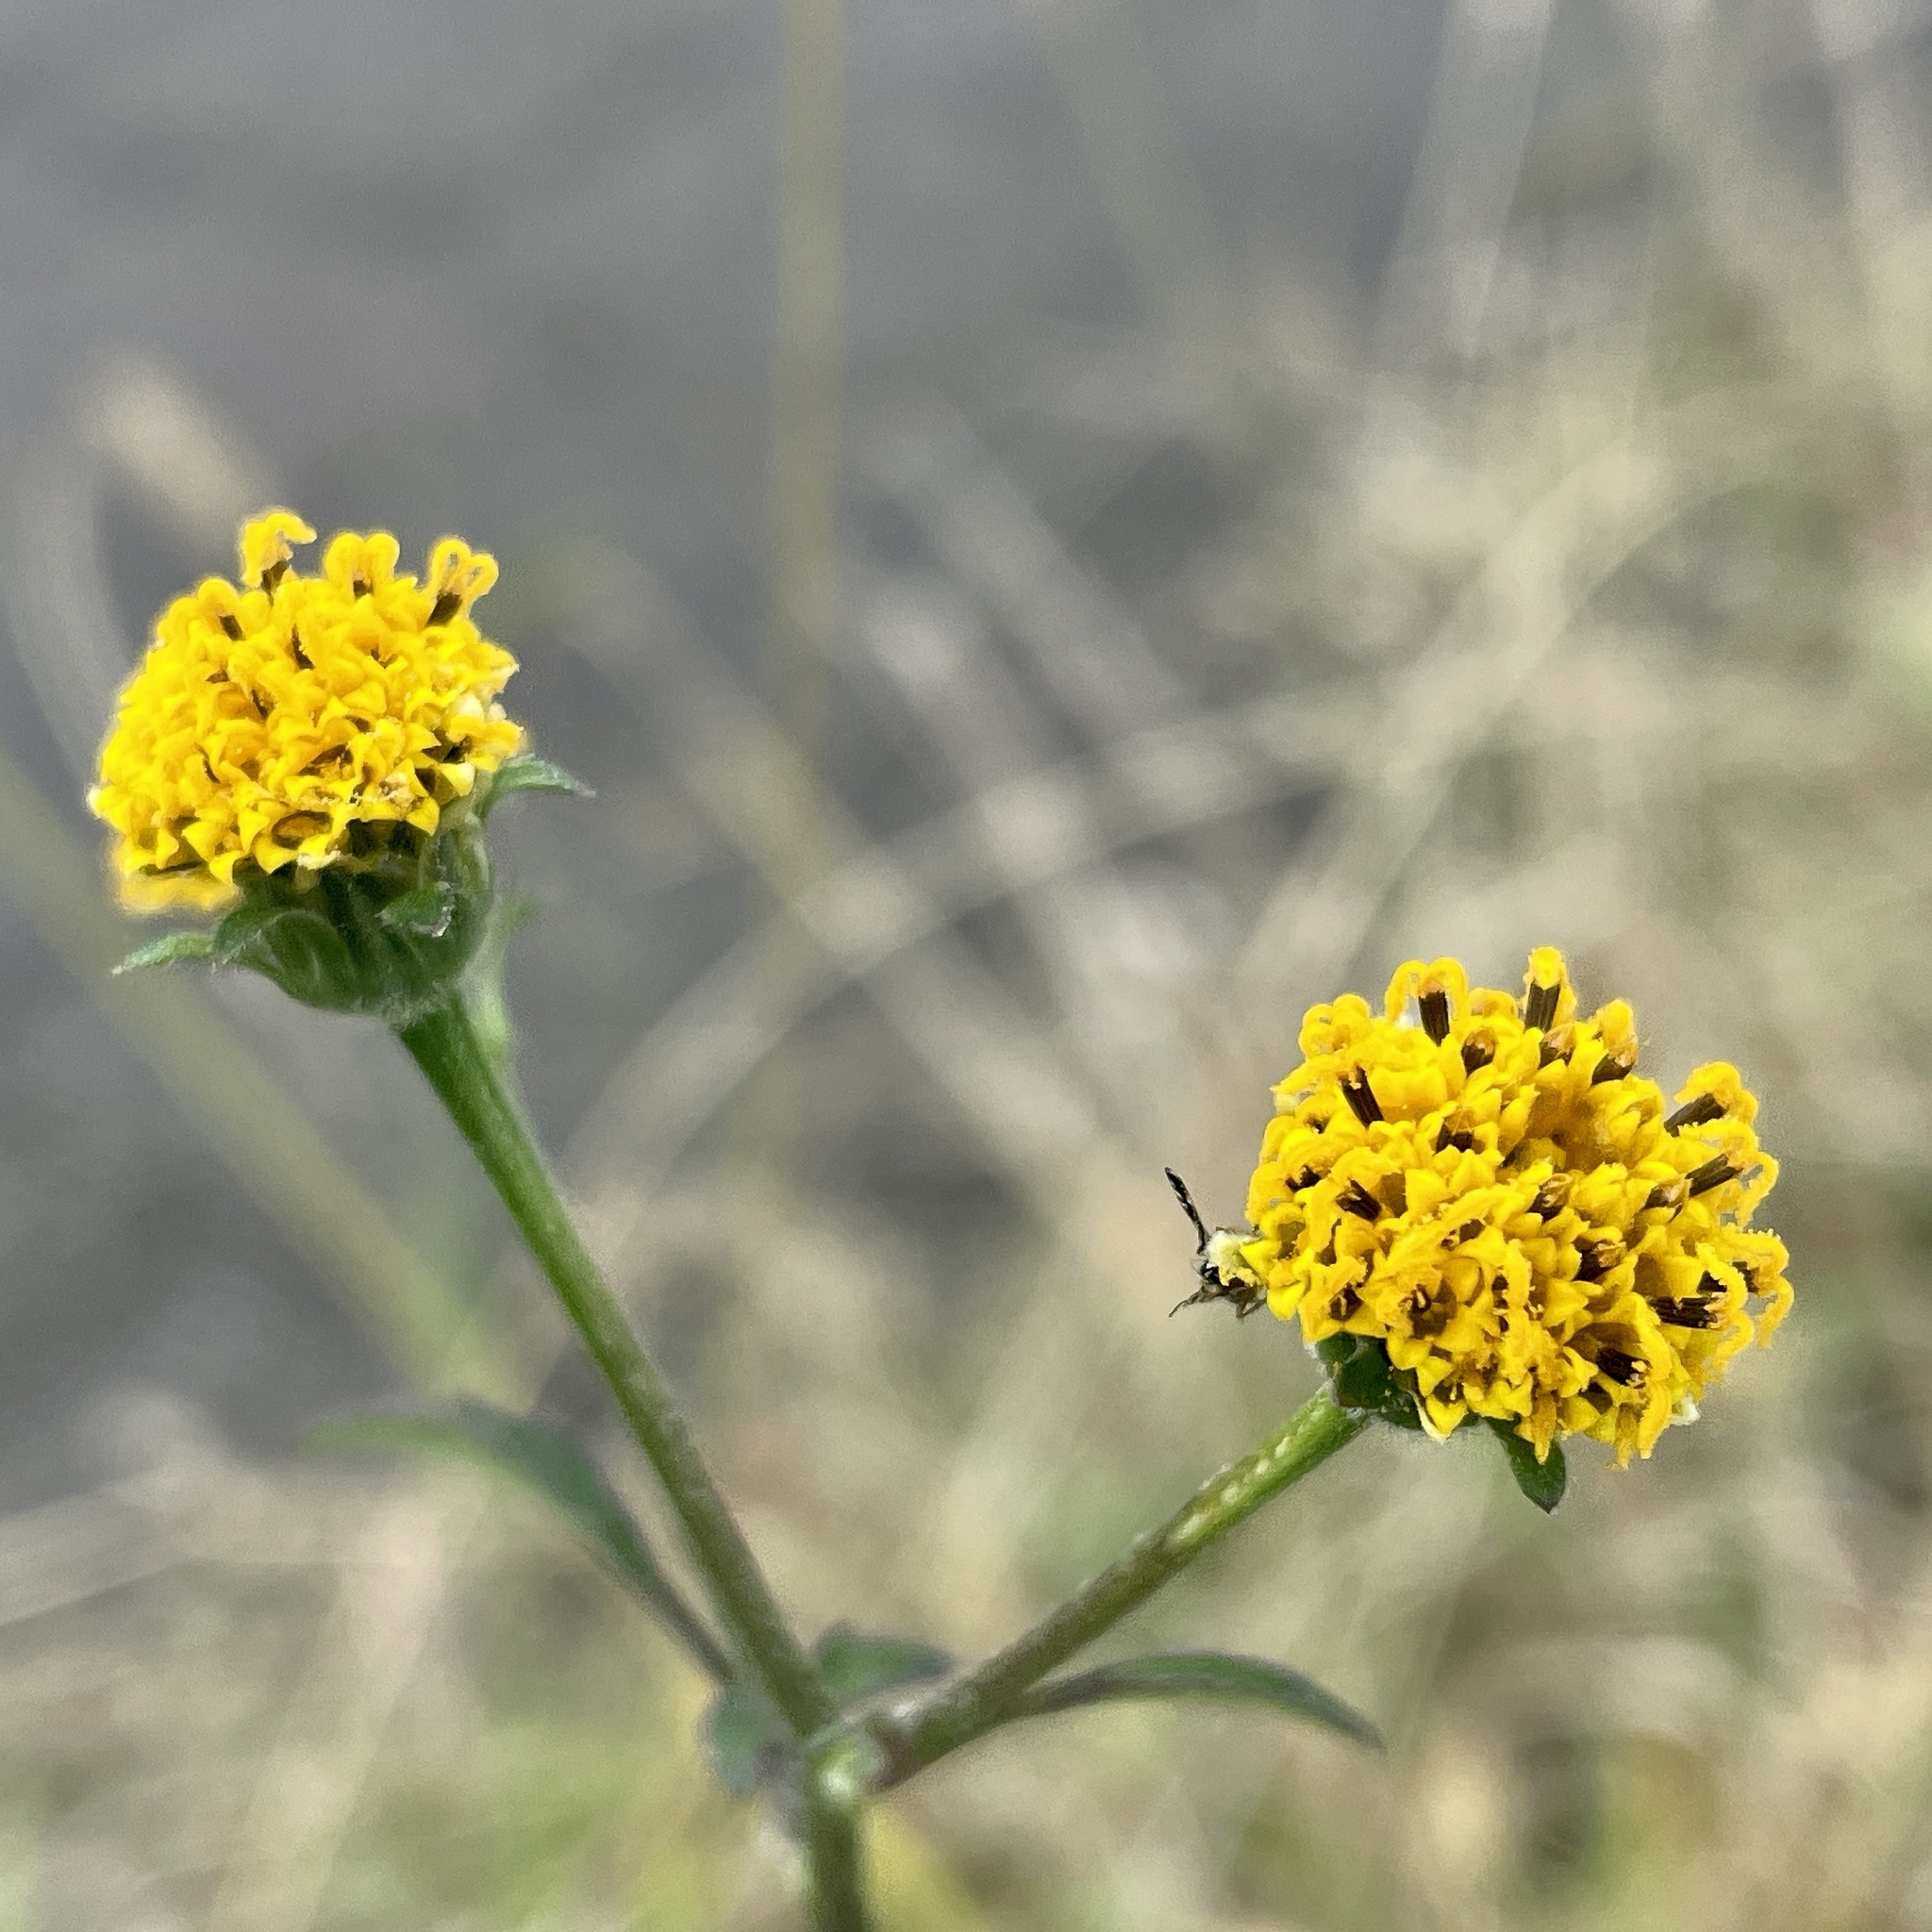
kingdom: Plantae
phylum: Tracheophyta
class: Magnoliopsida
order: Asterales
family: Asteraceae
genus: Bidens
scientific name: Bidens pilosa
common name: Black-jack
